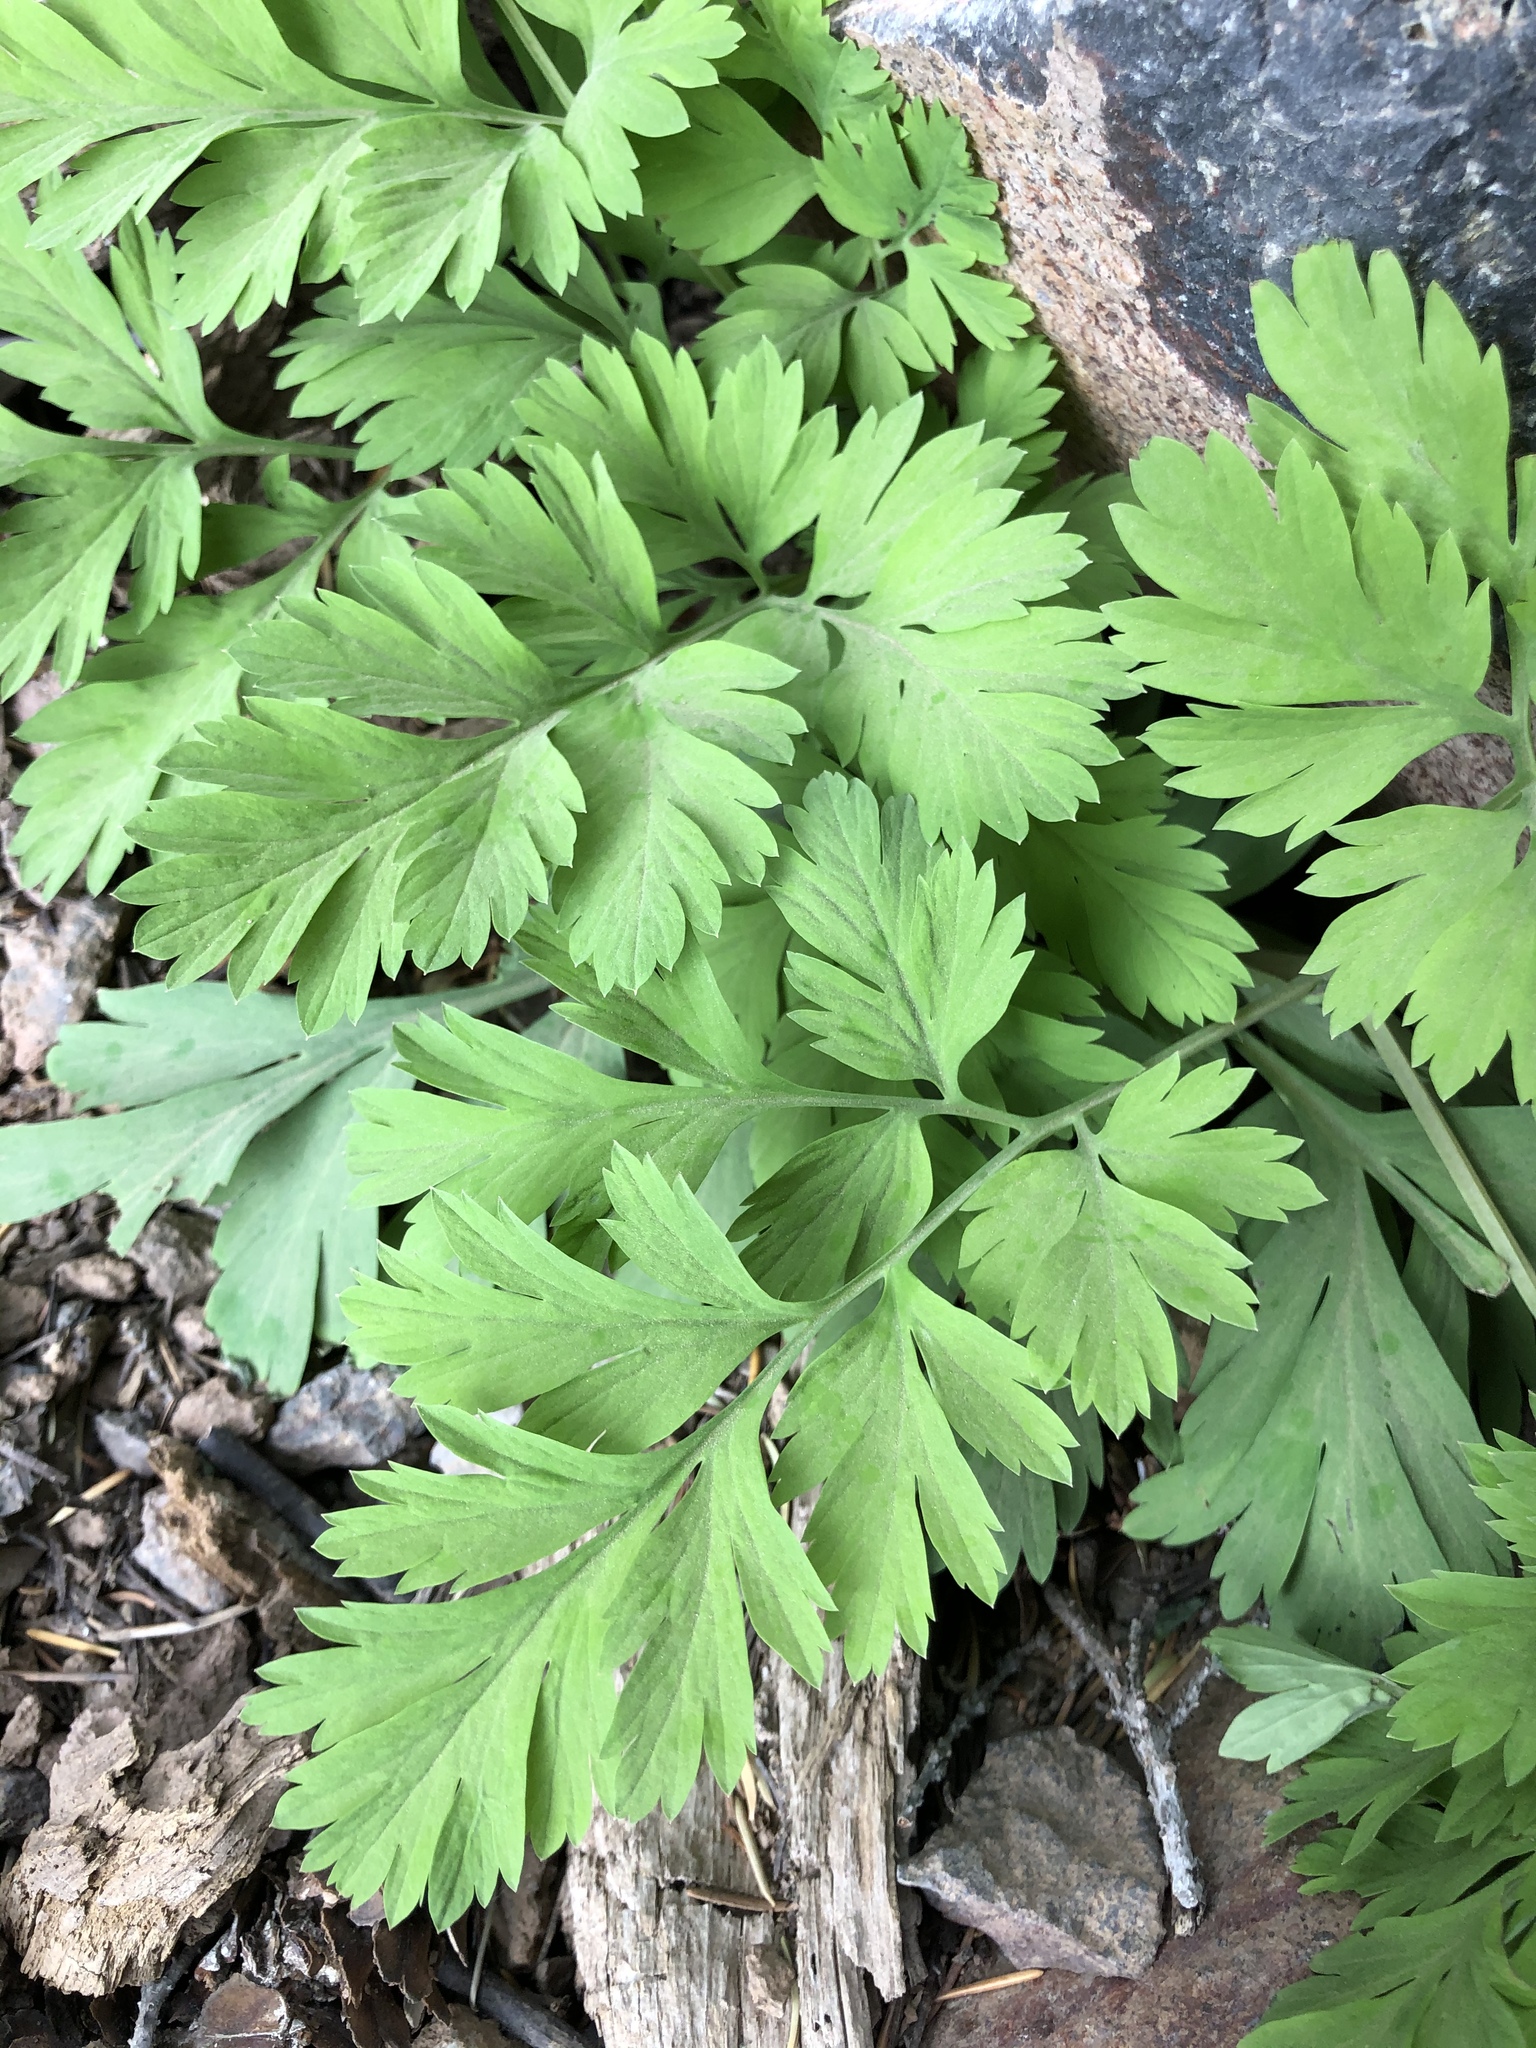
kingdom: Plantae
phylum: Tracheophyta
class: Magnoliopsida
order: Ranunculales
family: Papaveraceae
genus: Dicentra
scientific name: Dicentra formosa
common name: Bleeding-heart
